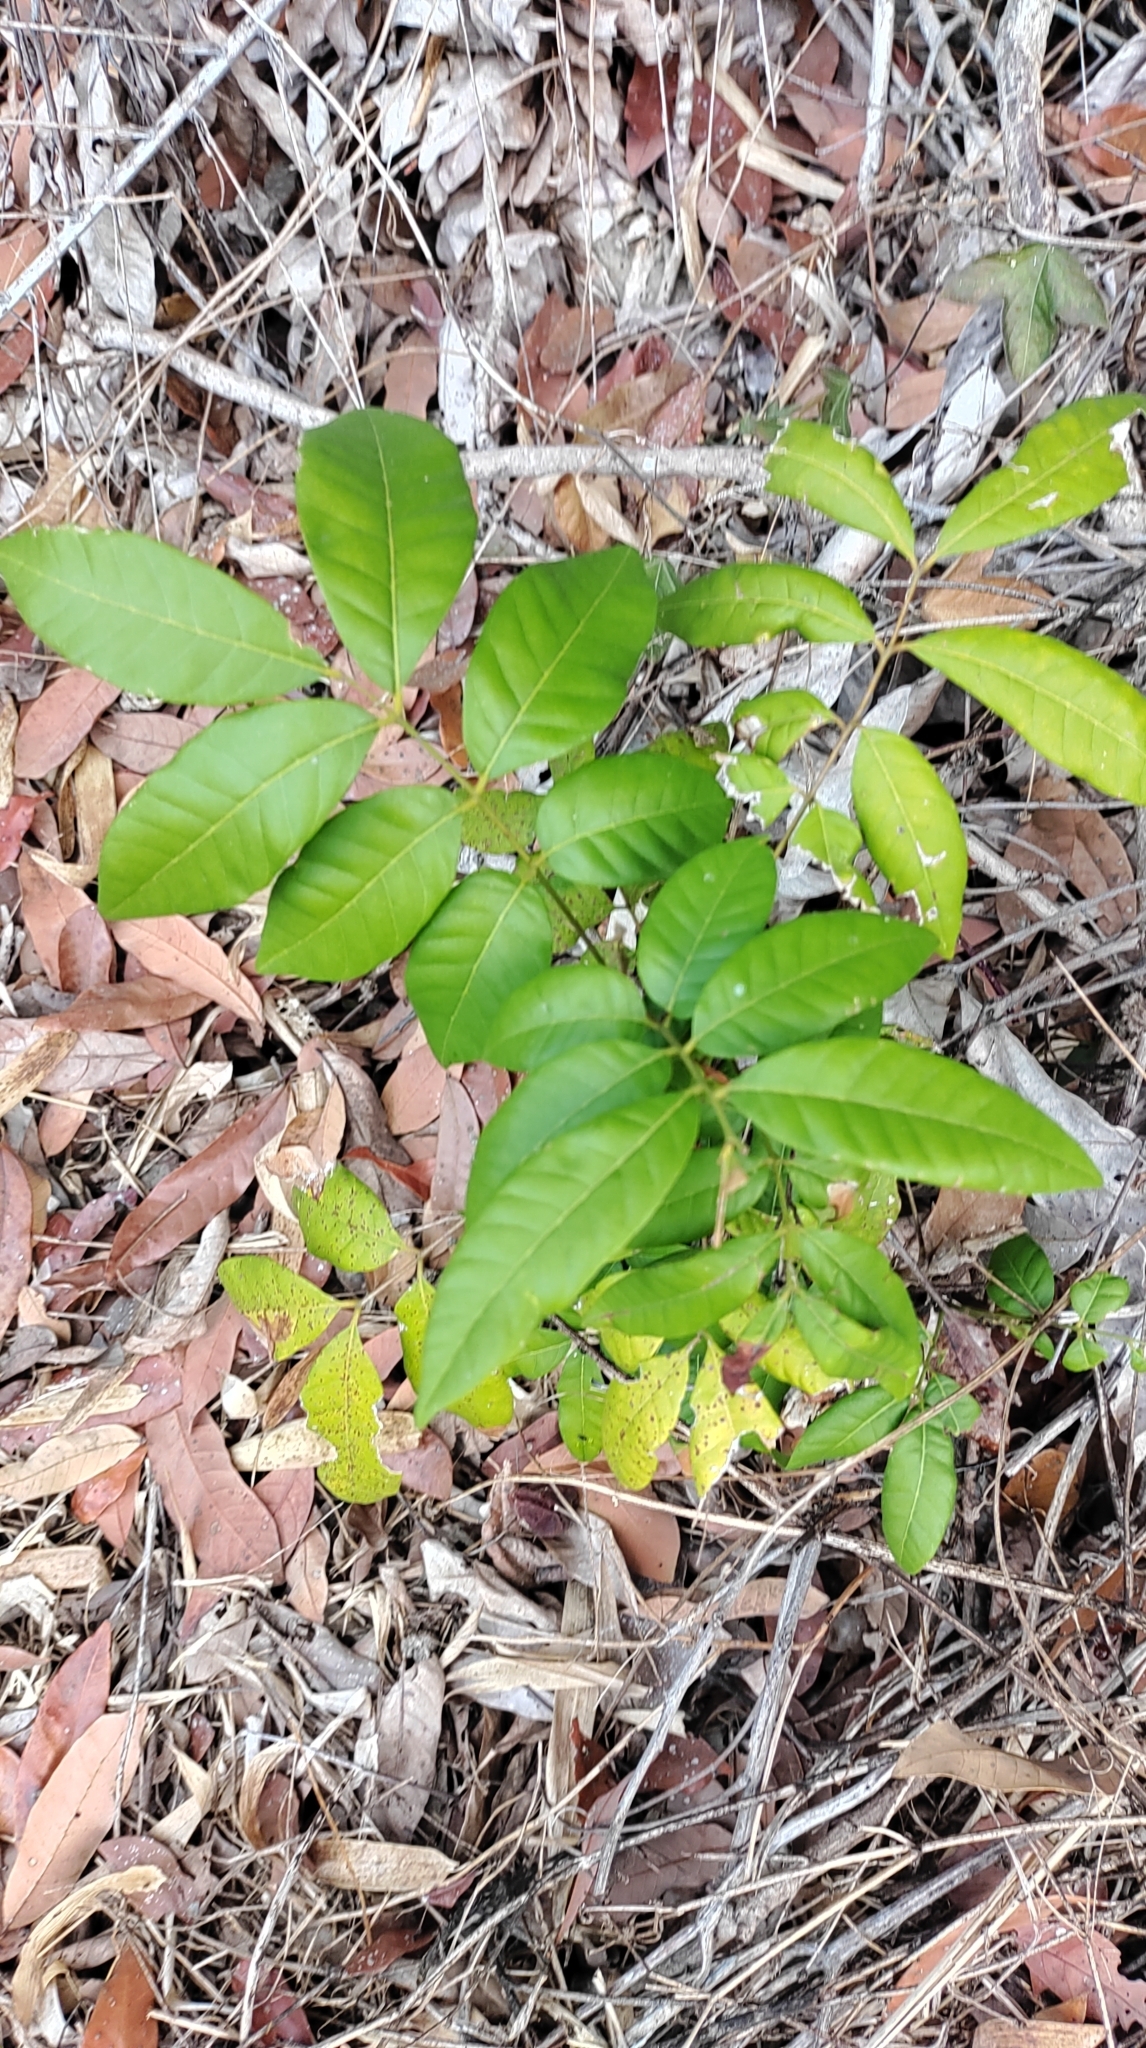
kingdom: Plantae
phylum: Tracheophyta
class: Magnoliopsida
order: Sapindales
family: Sapindaceae
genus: Dimocarpus
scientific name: Dimocarpus longan
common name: Longan
